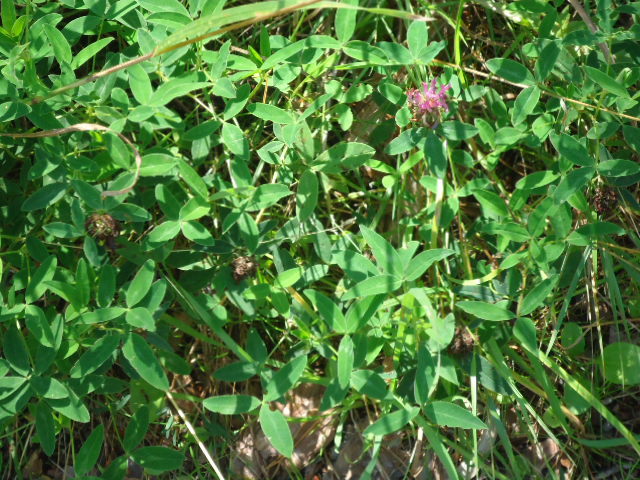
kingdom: Plantae
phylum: Tracheophyta
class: Magnoliopsida
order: Fabales
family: Fabaceae
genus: Trifolium
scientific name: Trifolium medium
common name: Zigzag clover
